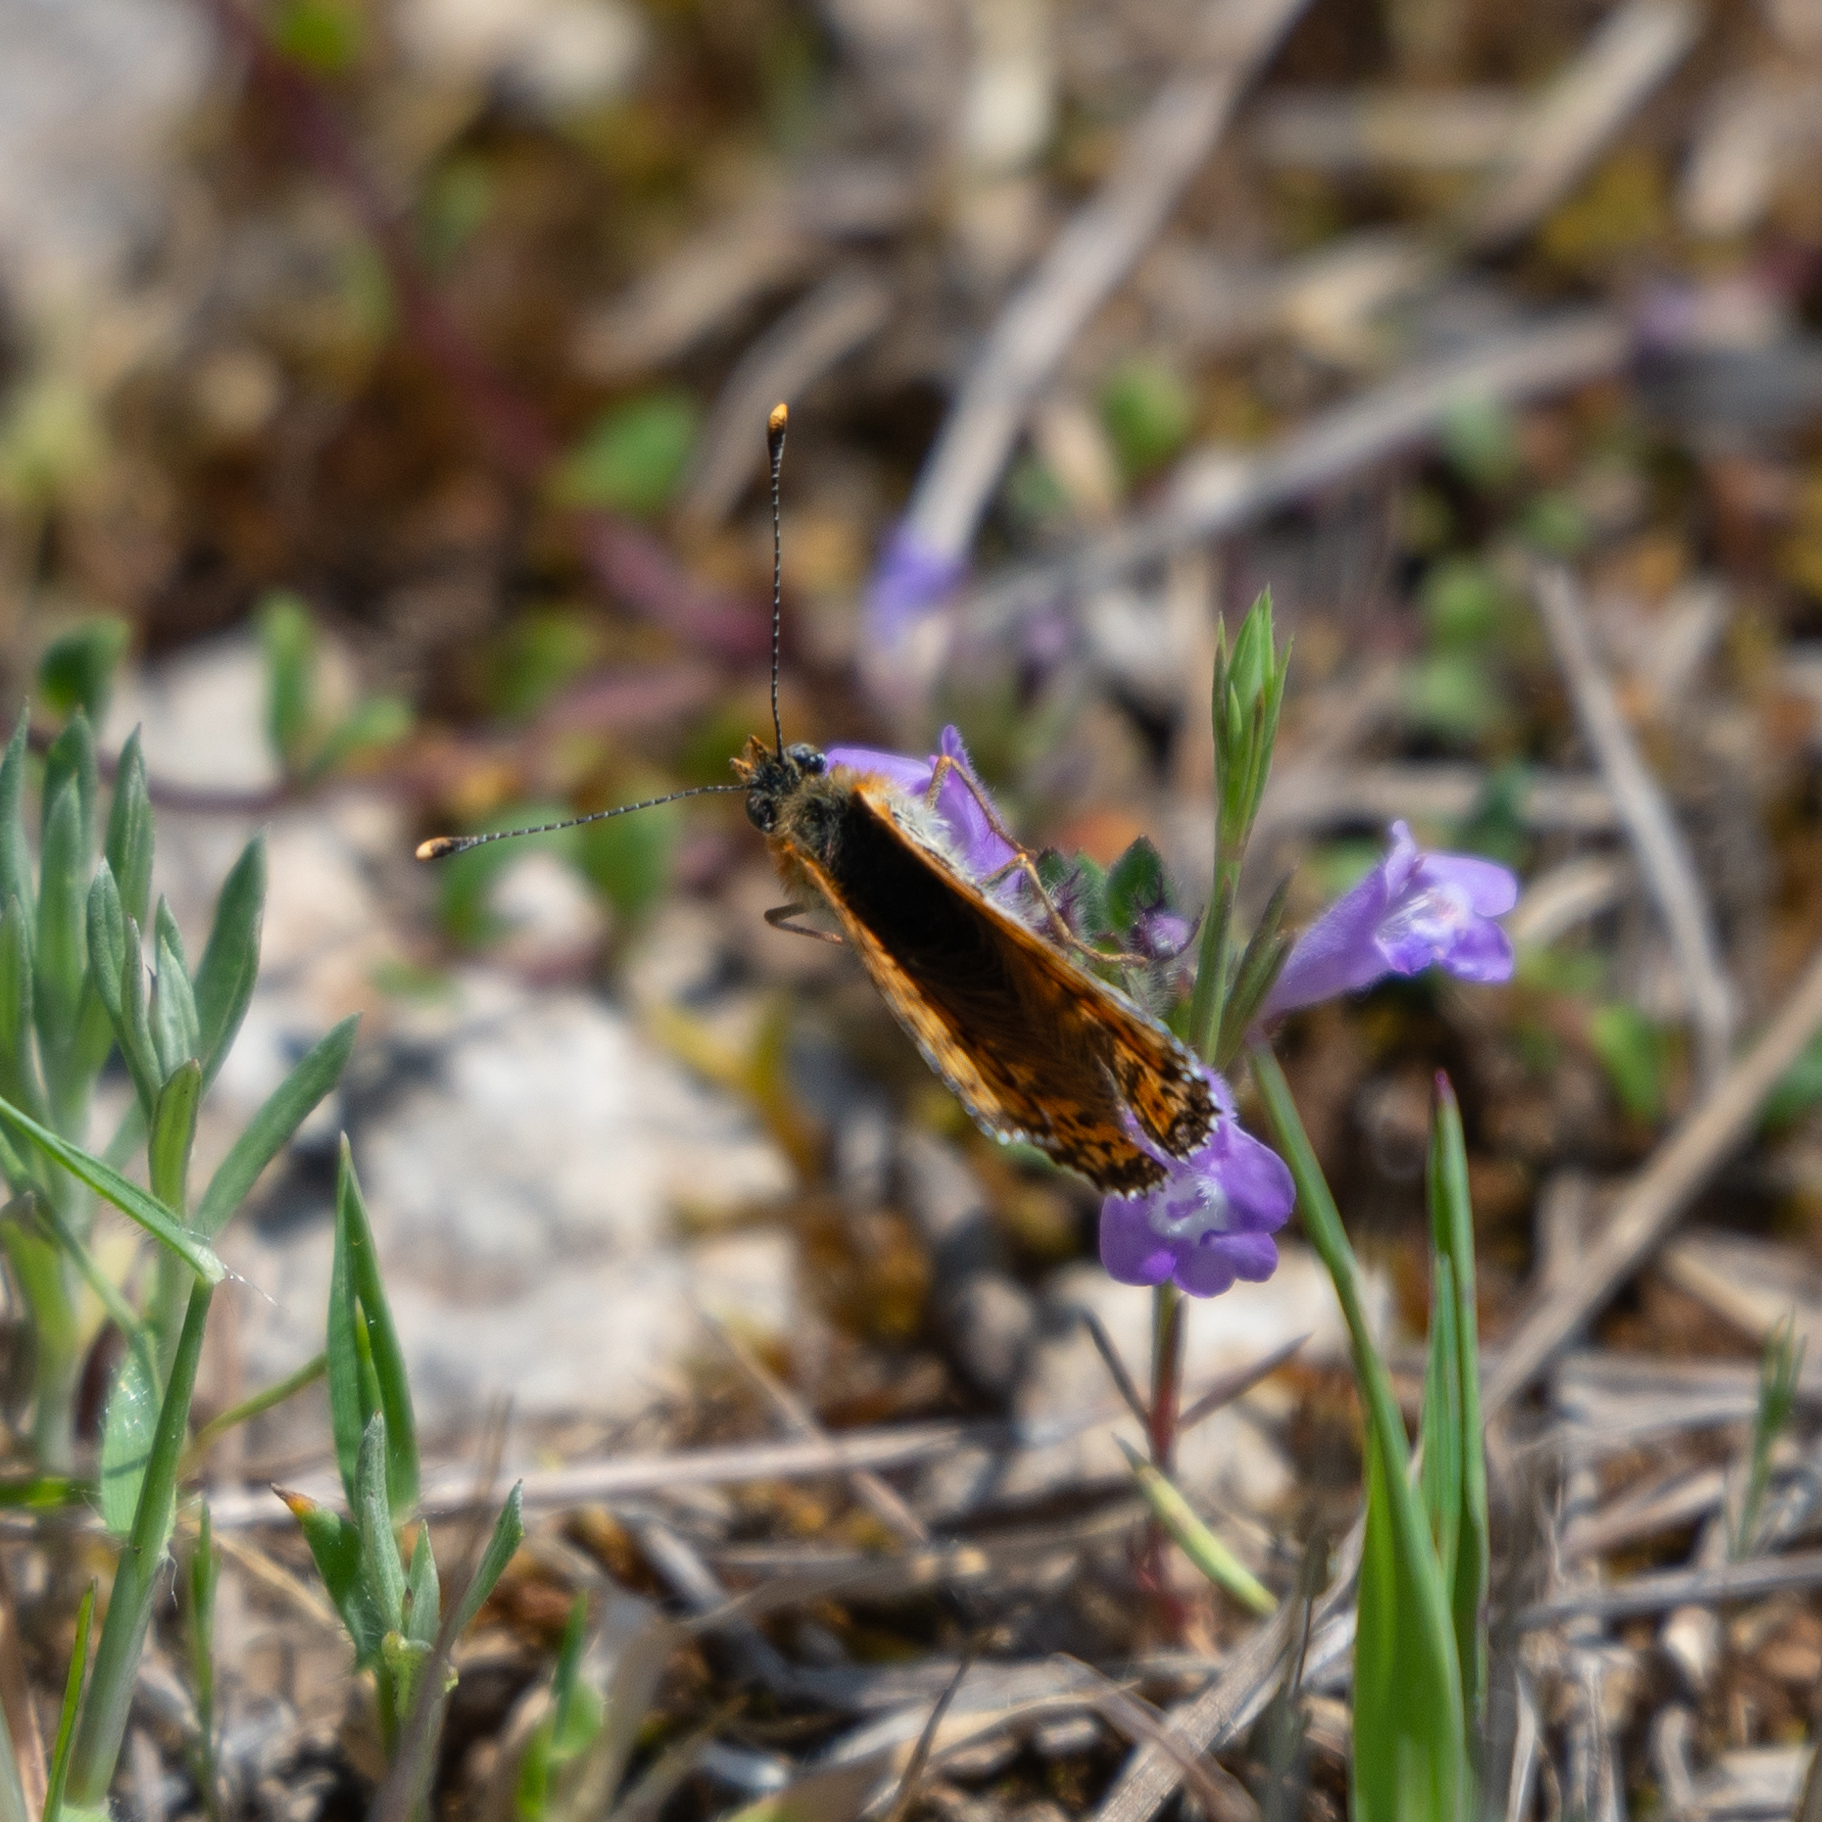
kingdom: Animalia
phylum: Arthropoda
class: Insecta
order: Lepidoptera
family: Nymphalidae
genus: Melitaea
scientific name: Melitaea cinxia
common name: Glanville fritillary
